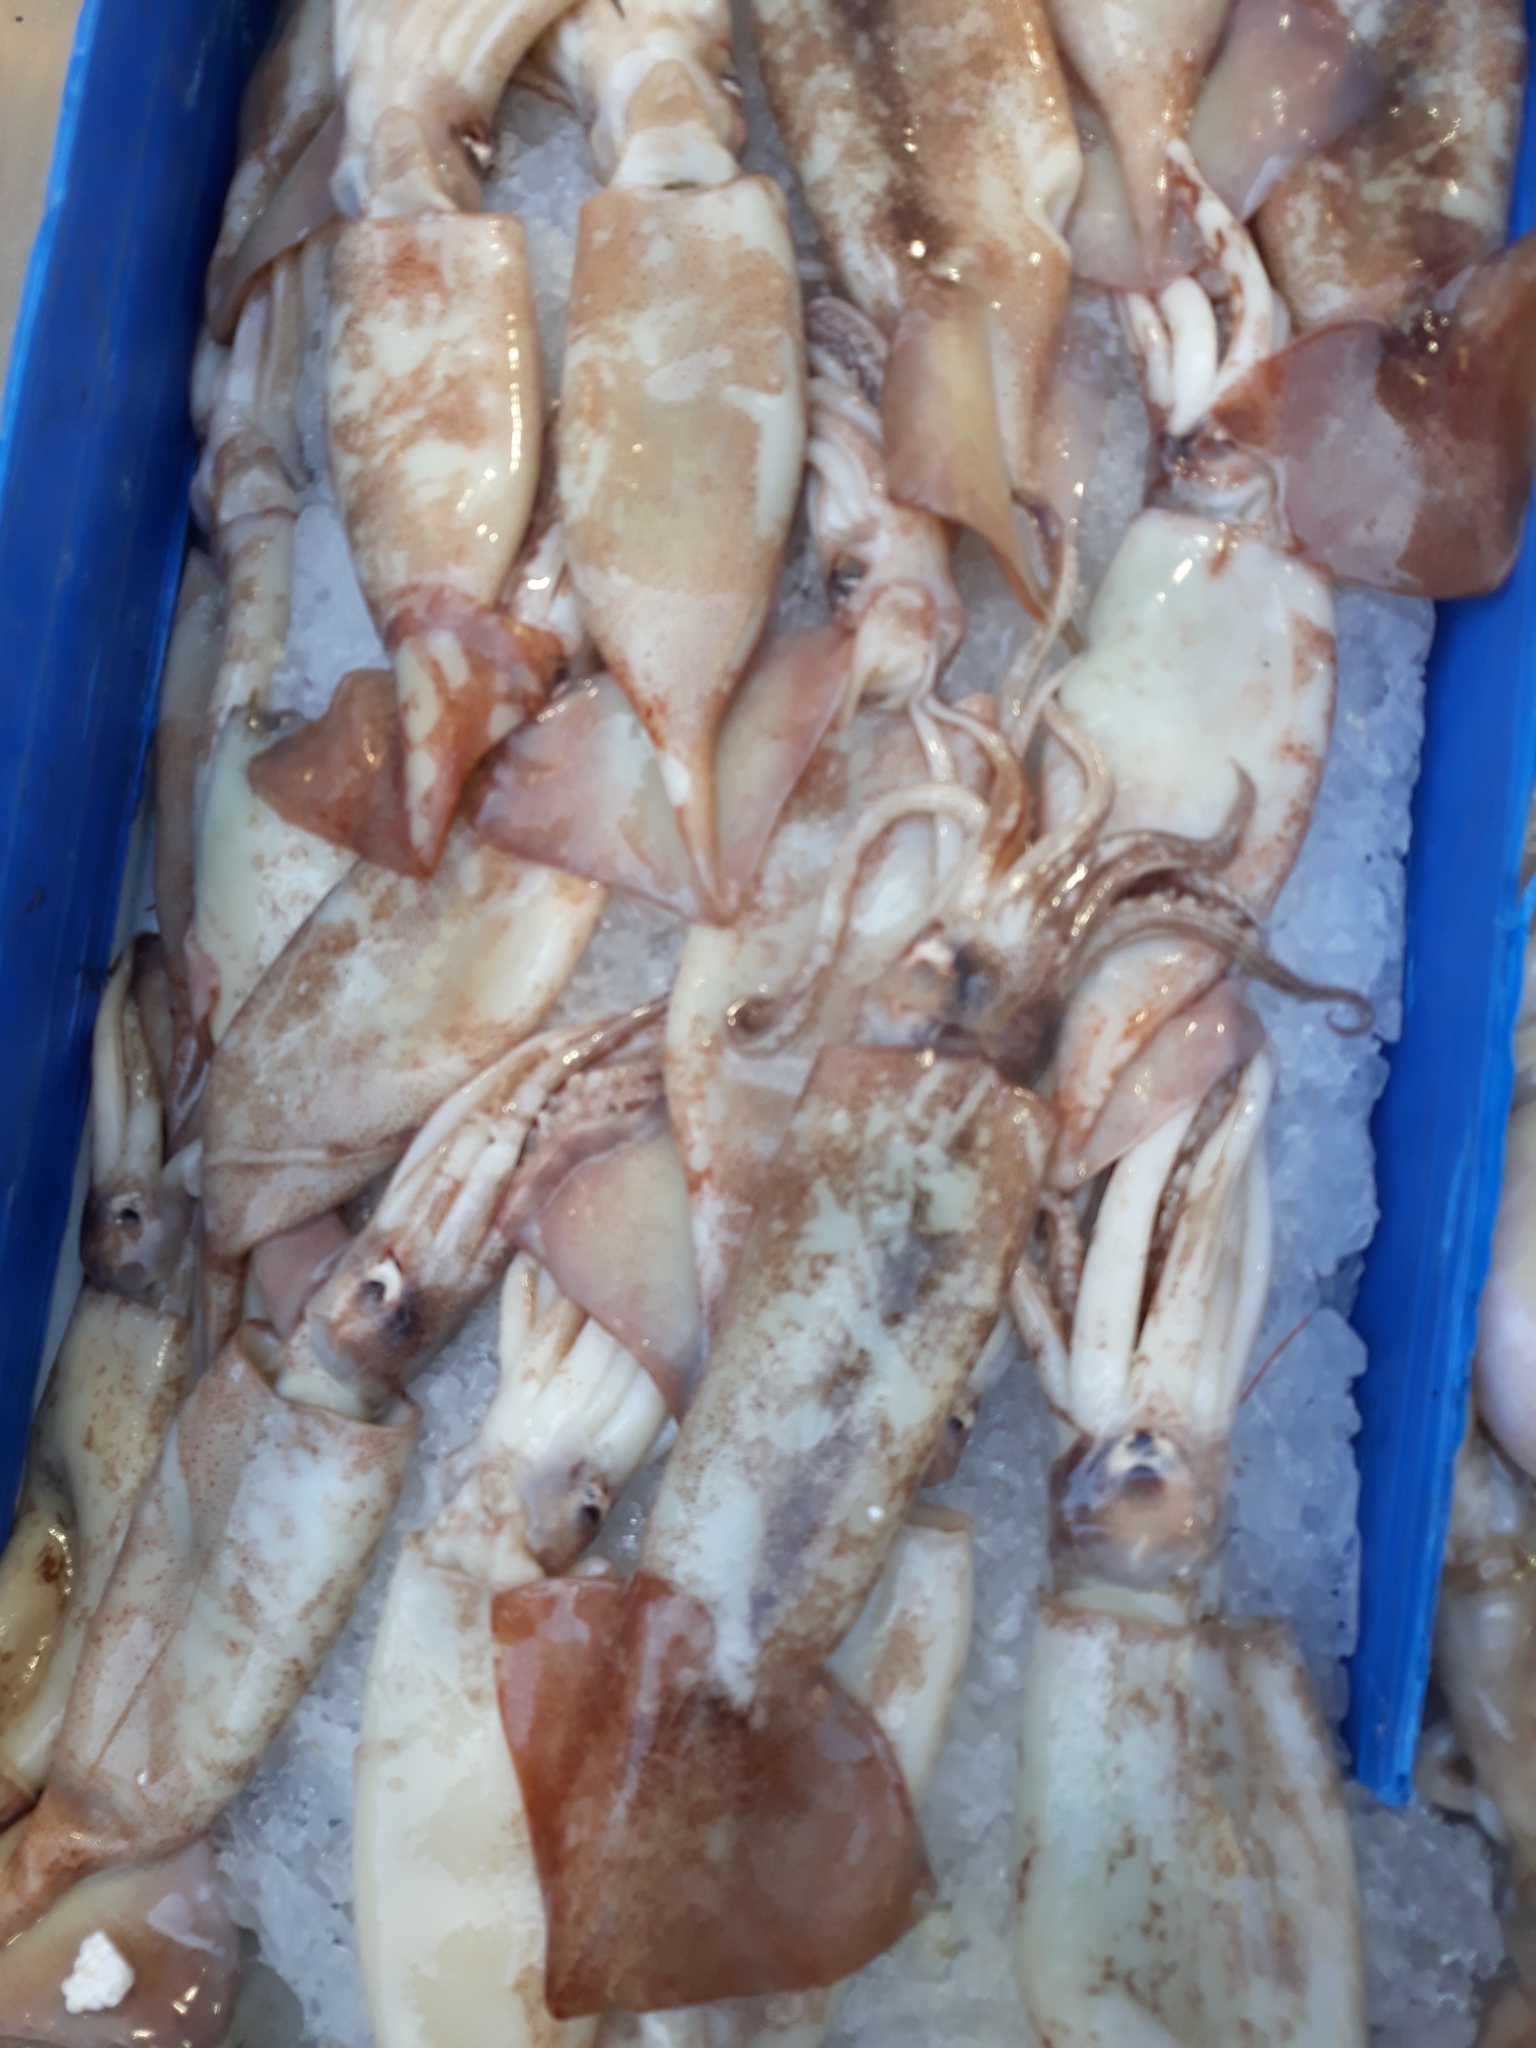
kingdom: Animalia
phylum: Mollusca
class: Cephalopoda
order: Oegopsida
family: Ommastrephidae
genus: Illex
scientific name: Illex coindetii
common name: Broadtail shortfin squid
